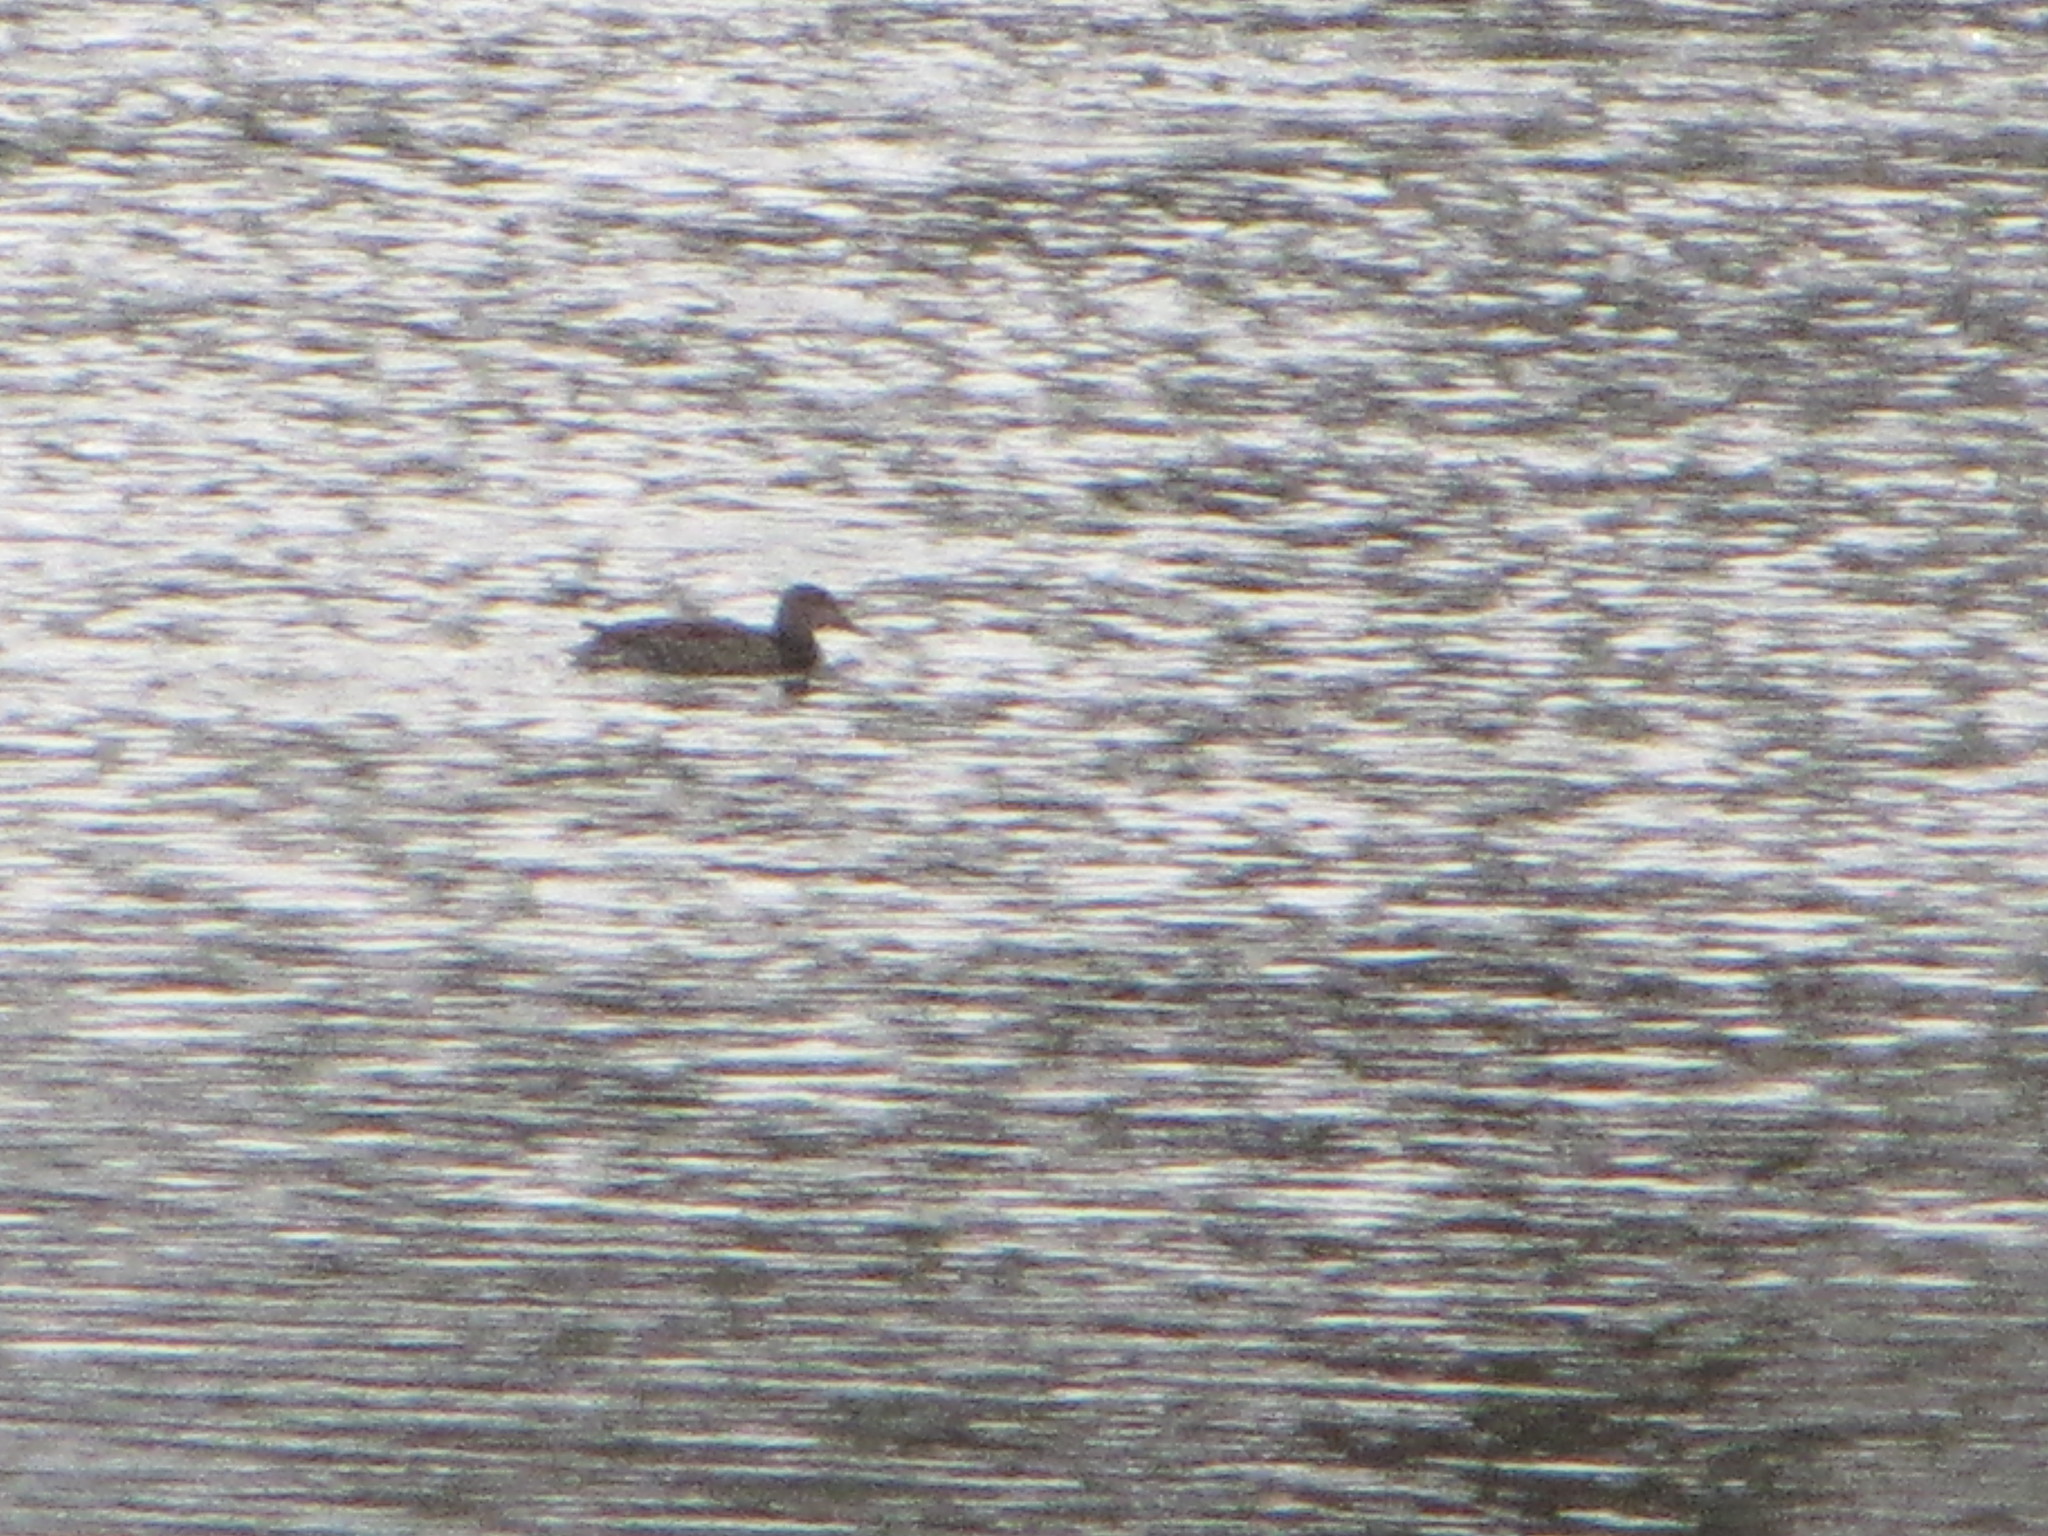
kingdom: Animalia
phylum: Chordata
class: Aves
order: Anseriformes
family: Anatidae
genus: Anas
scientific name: Anas platyrhynchos
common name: Mallard
